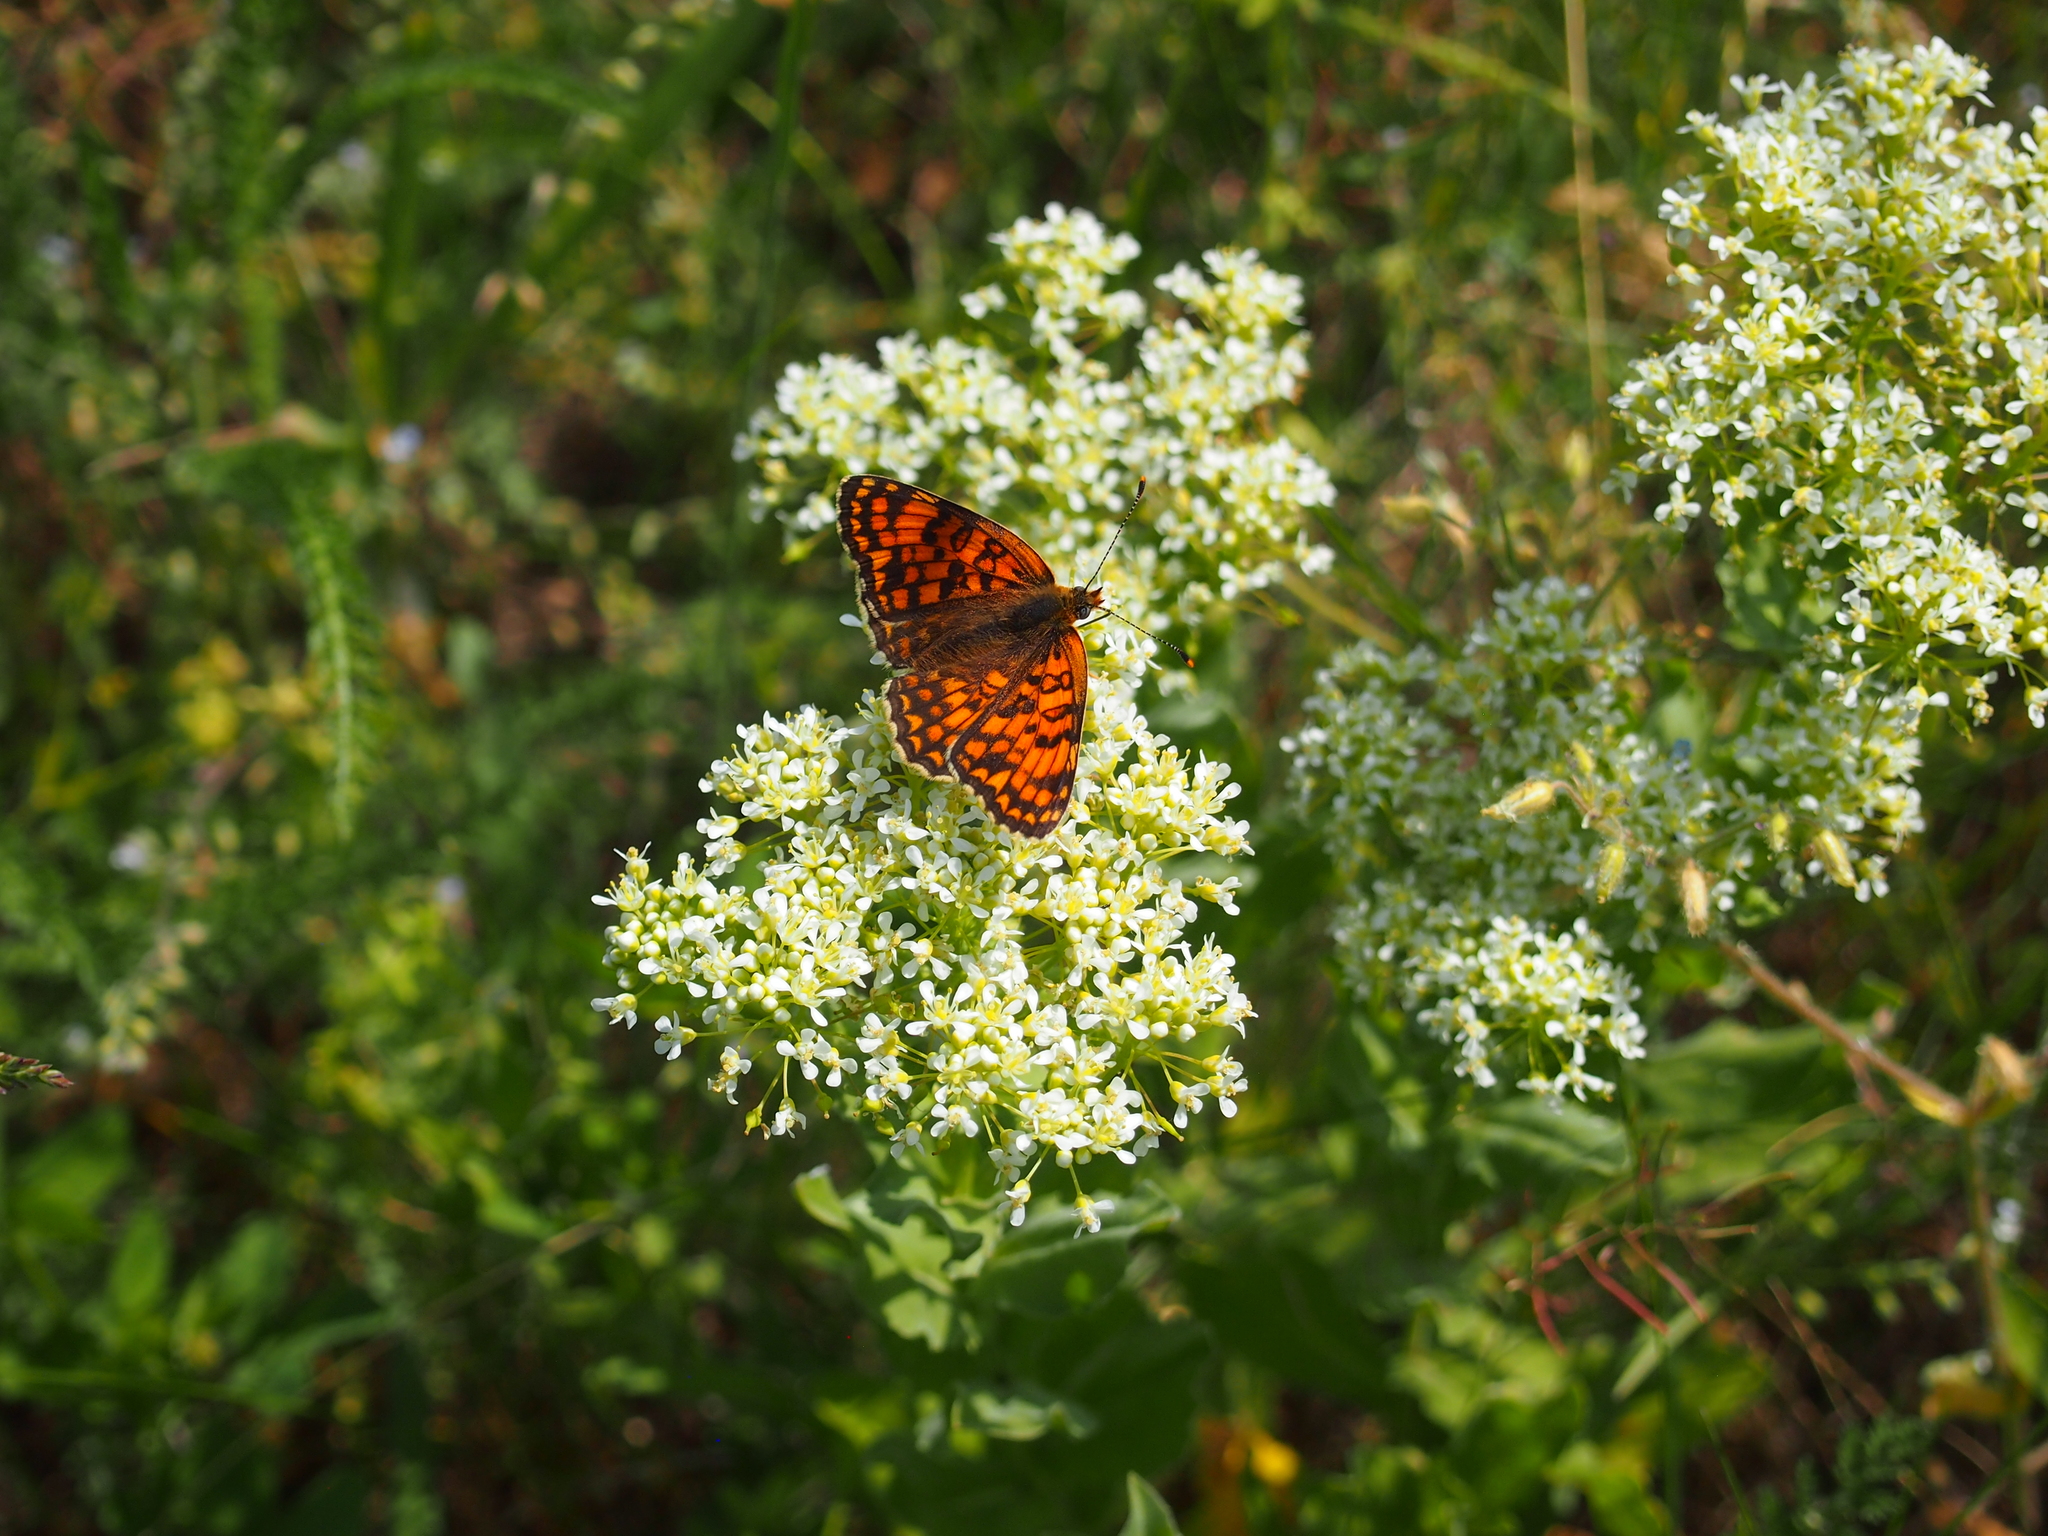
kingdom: Plantae
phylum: Tracheophyta
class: Magnoliopsida
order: Brassicales
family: Brassicaceae
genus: Lepidium
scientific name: Lepidium draba
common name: Hoary cress
